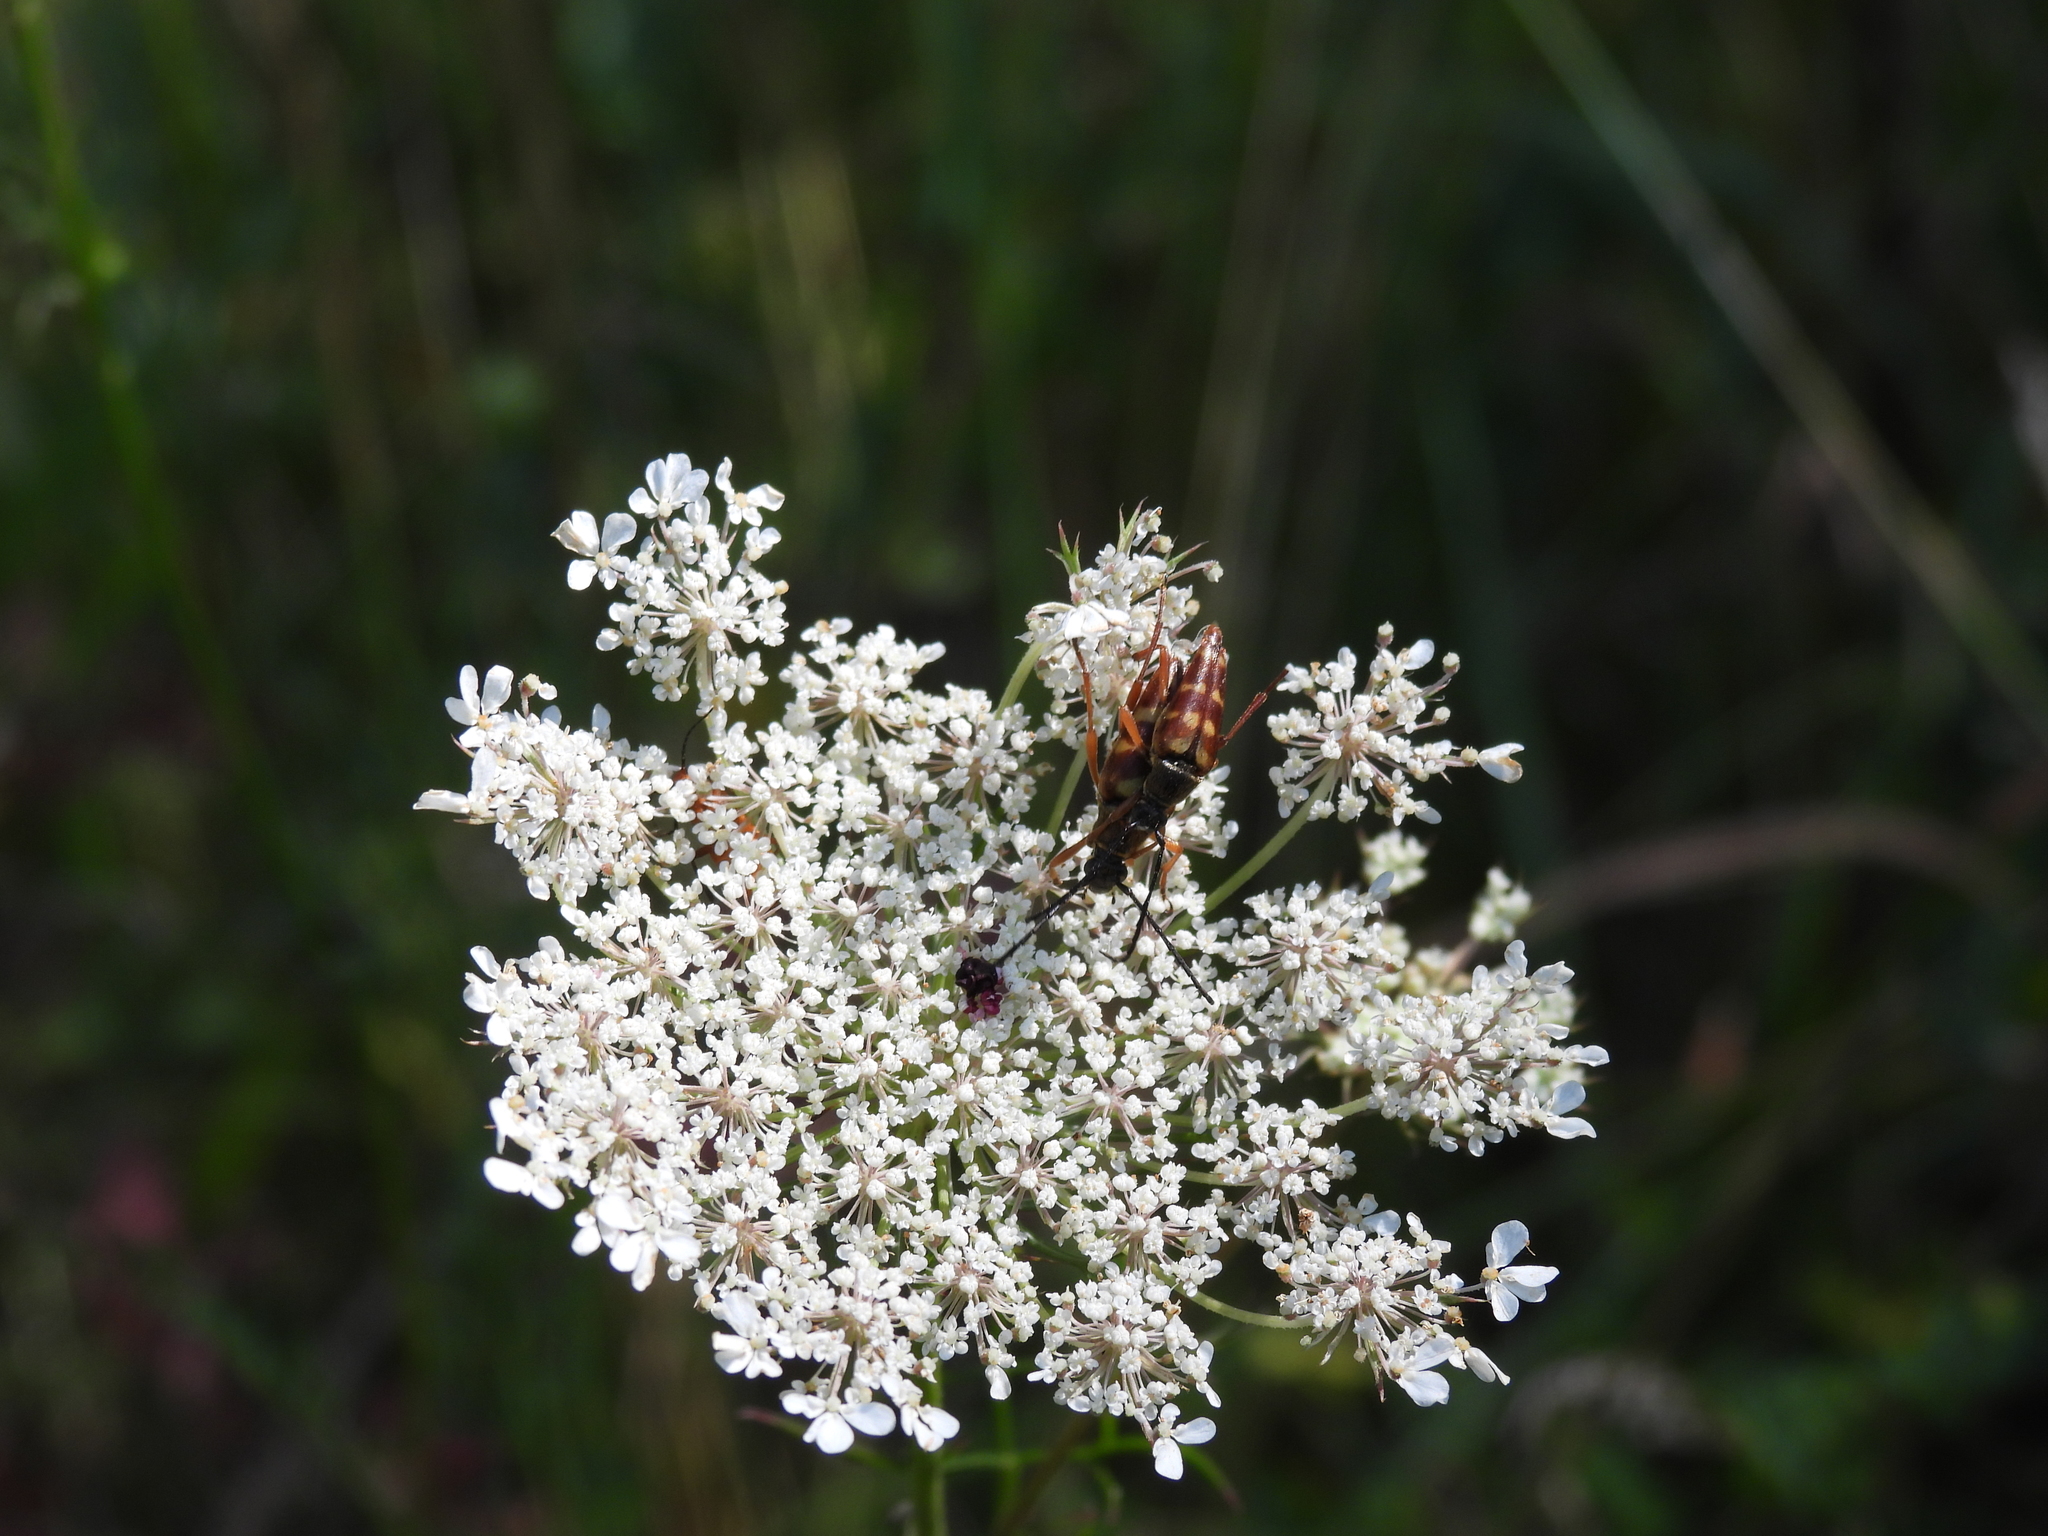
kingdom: Animalia
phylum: Arthropoda
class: Insecta
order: Coleoptera
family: Cerambycidae
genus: Typocerus
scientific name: Typocerus velutinus
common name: Banded longhorn beetle
